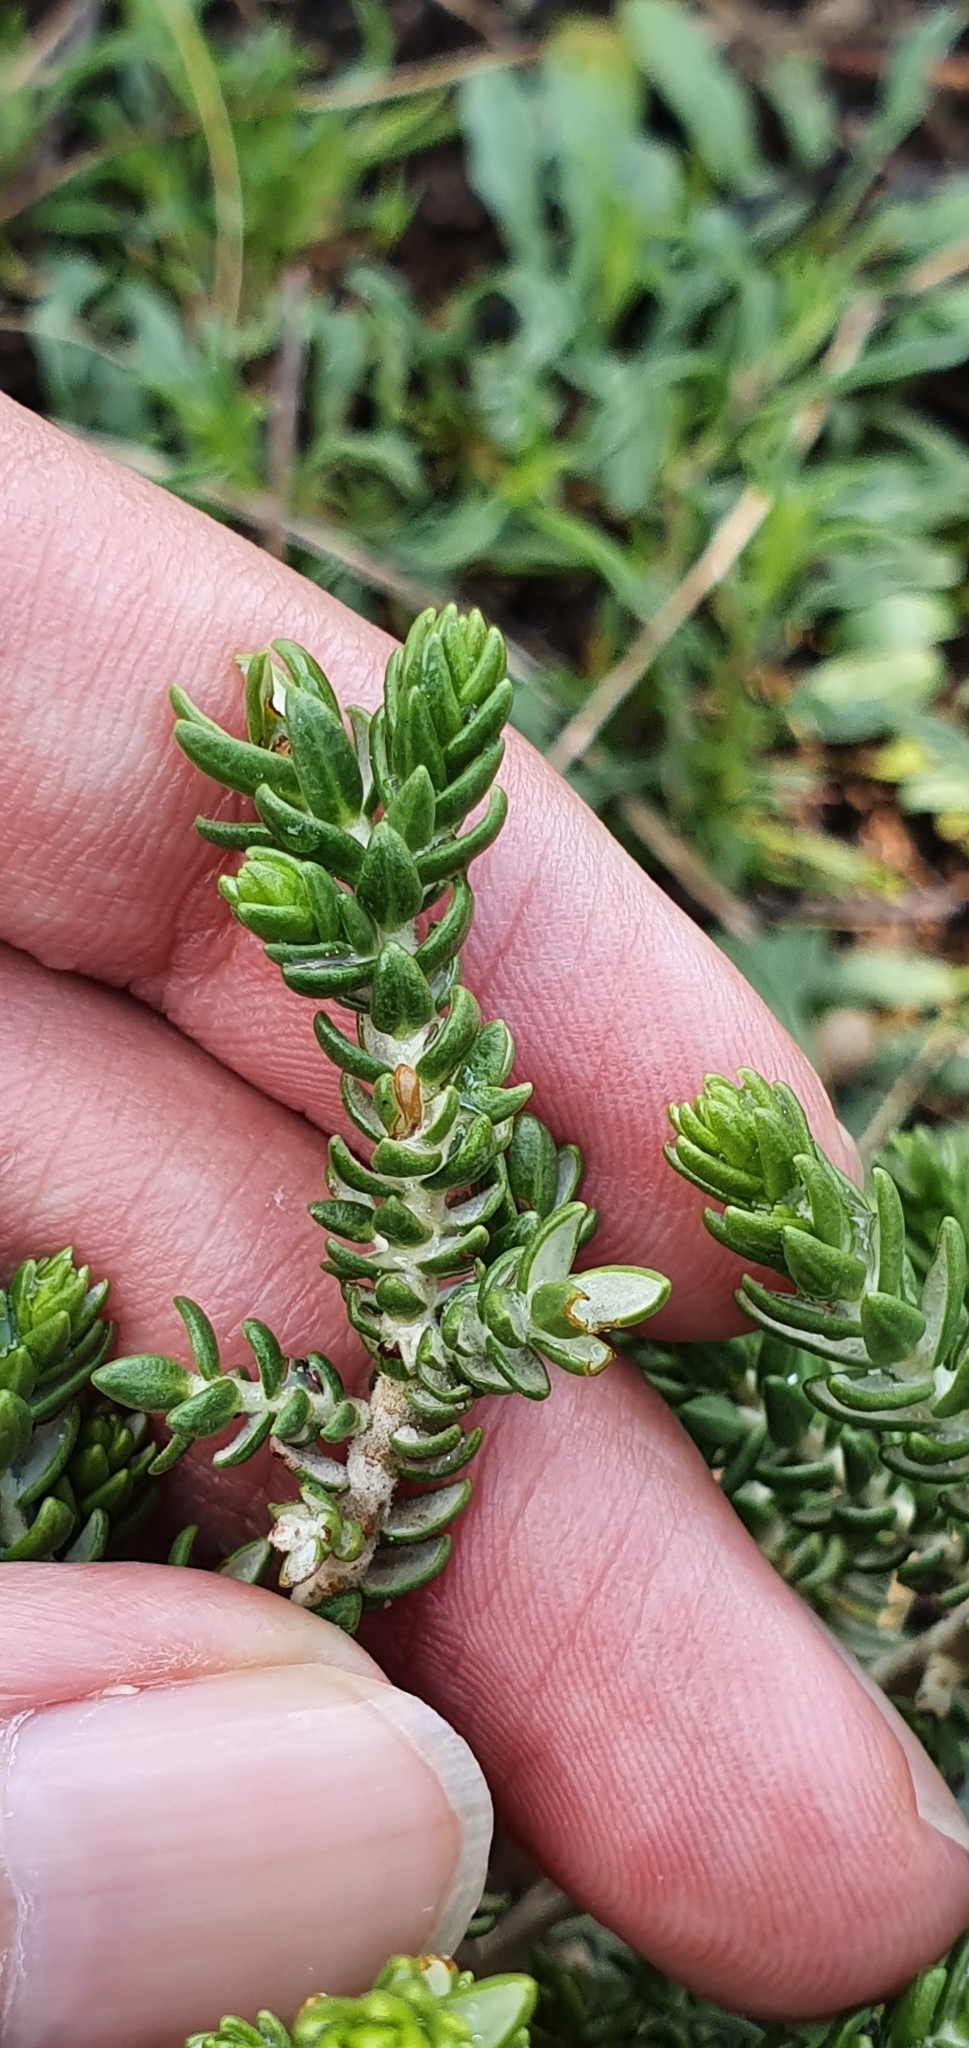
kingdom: Plantae
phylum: Tracheophyta
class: Magnoliopsida
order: Malvales
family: Thymelaeaceae
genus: Thymelaea
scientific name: Thymelaea hirsuta
